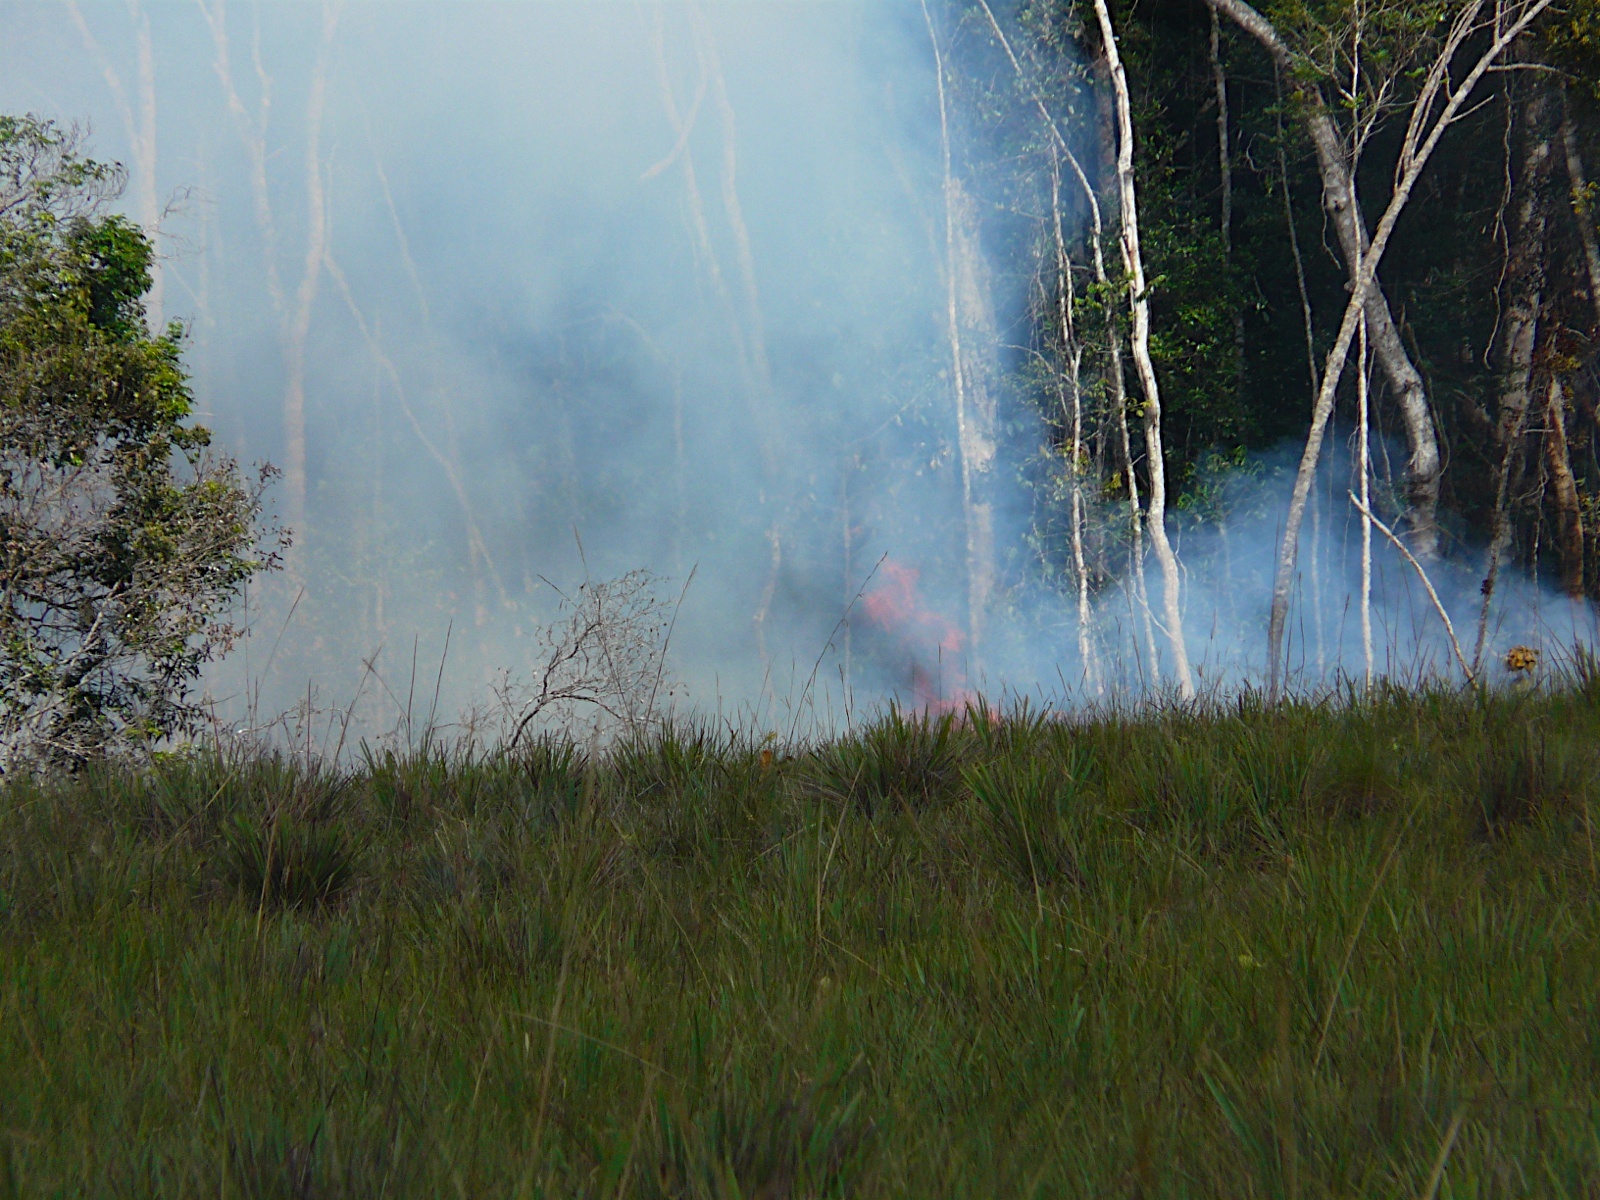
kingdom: Plantae
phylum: Tracheophyta
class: Liliopsida
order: Pandanales
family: Velloziaceae
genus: Vellozia
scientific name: Vellozia tubiflora
